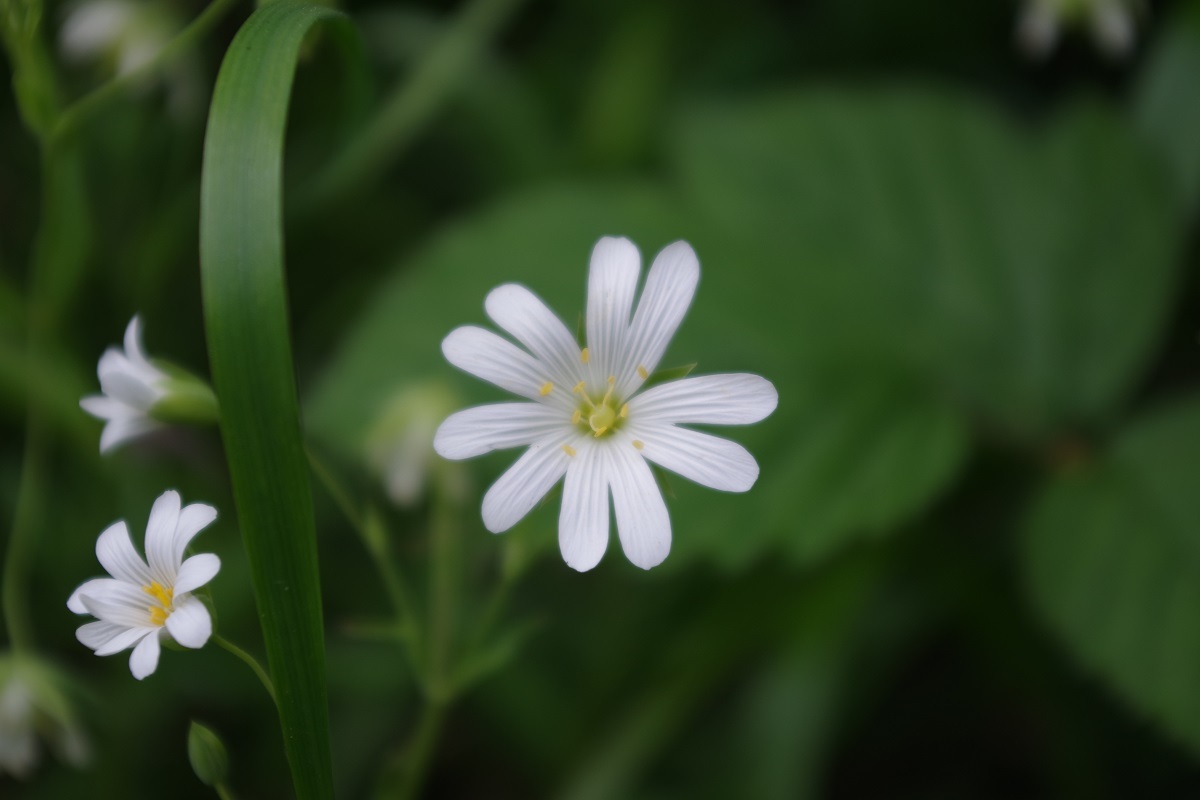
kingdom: Plantae
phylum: Tracheophyta
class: Magnoliopsida
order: Caryophyllales
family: Caryophyllaceae
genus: Rabelera
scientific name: Rabelera holostea
